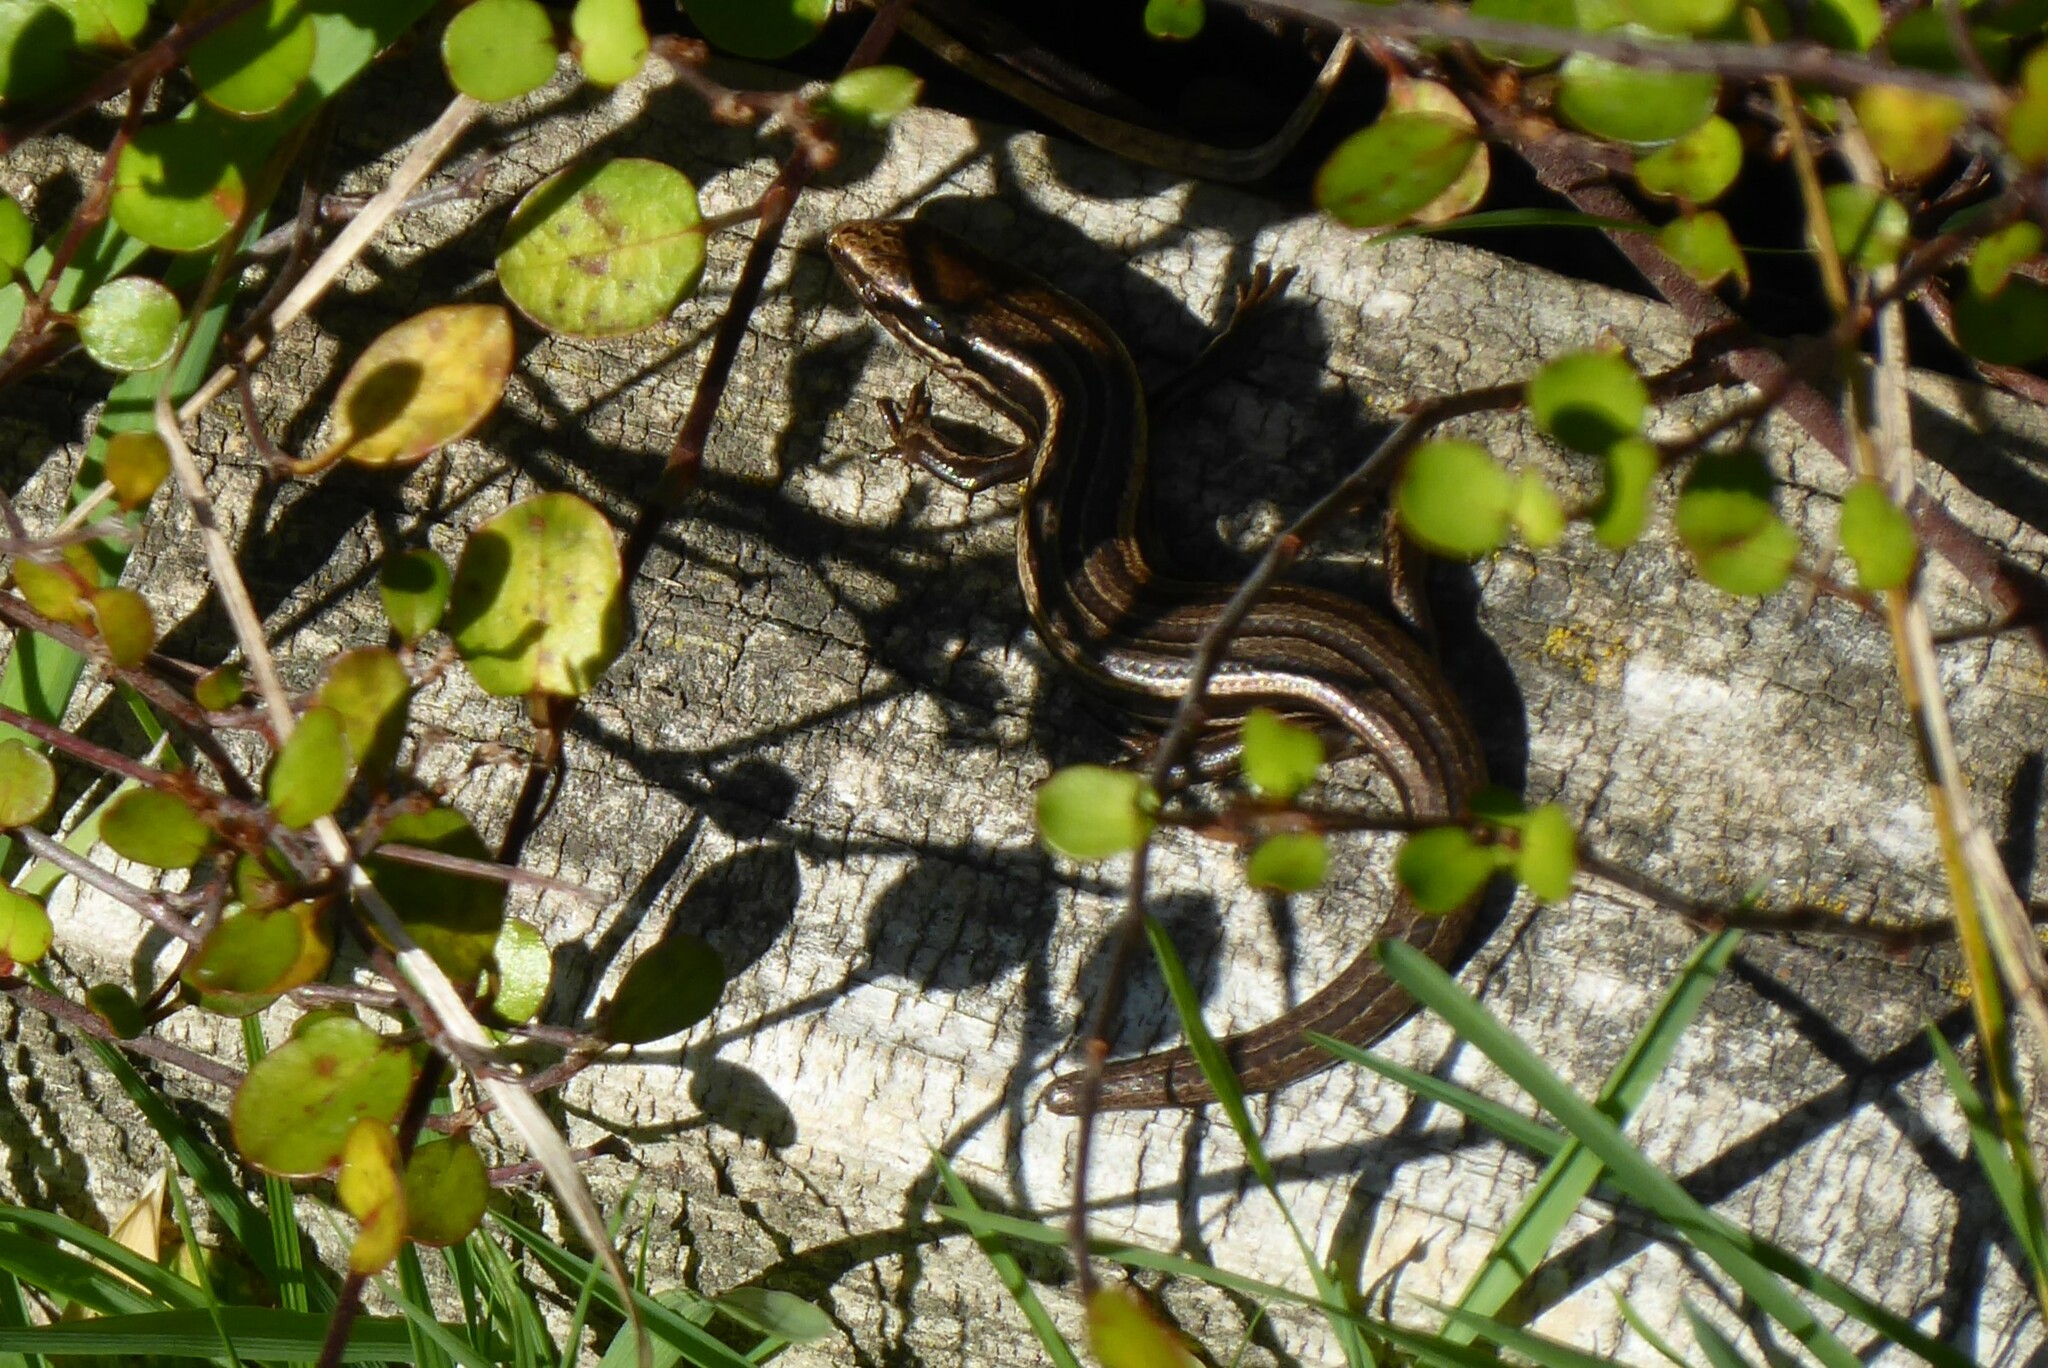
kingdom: Animalia
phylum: Chordata
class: Squamata
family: Scincidae
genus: Oligosoma
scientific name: Oligosoma polychroma
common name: Common new zealand skink
